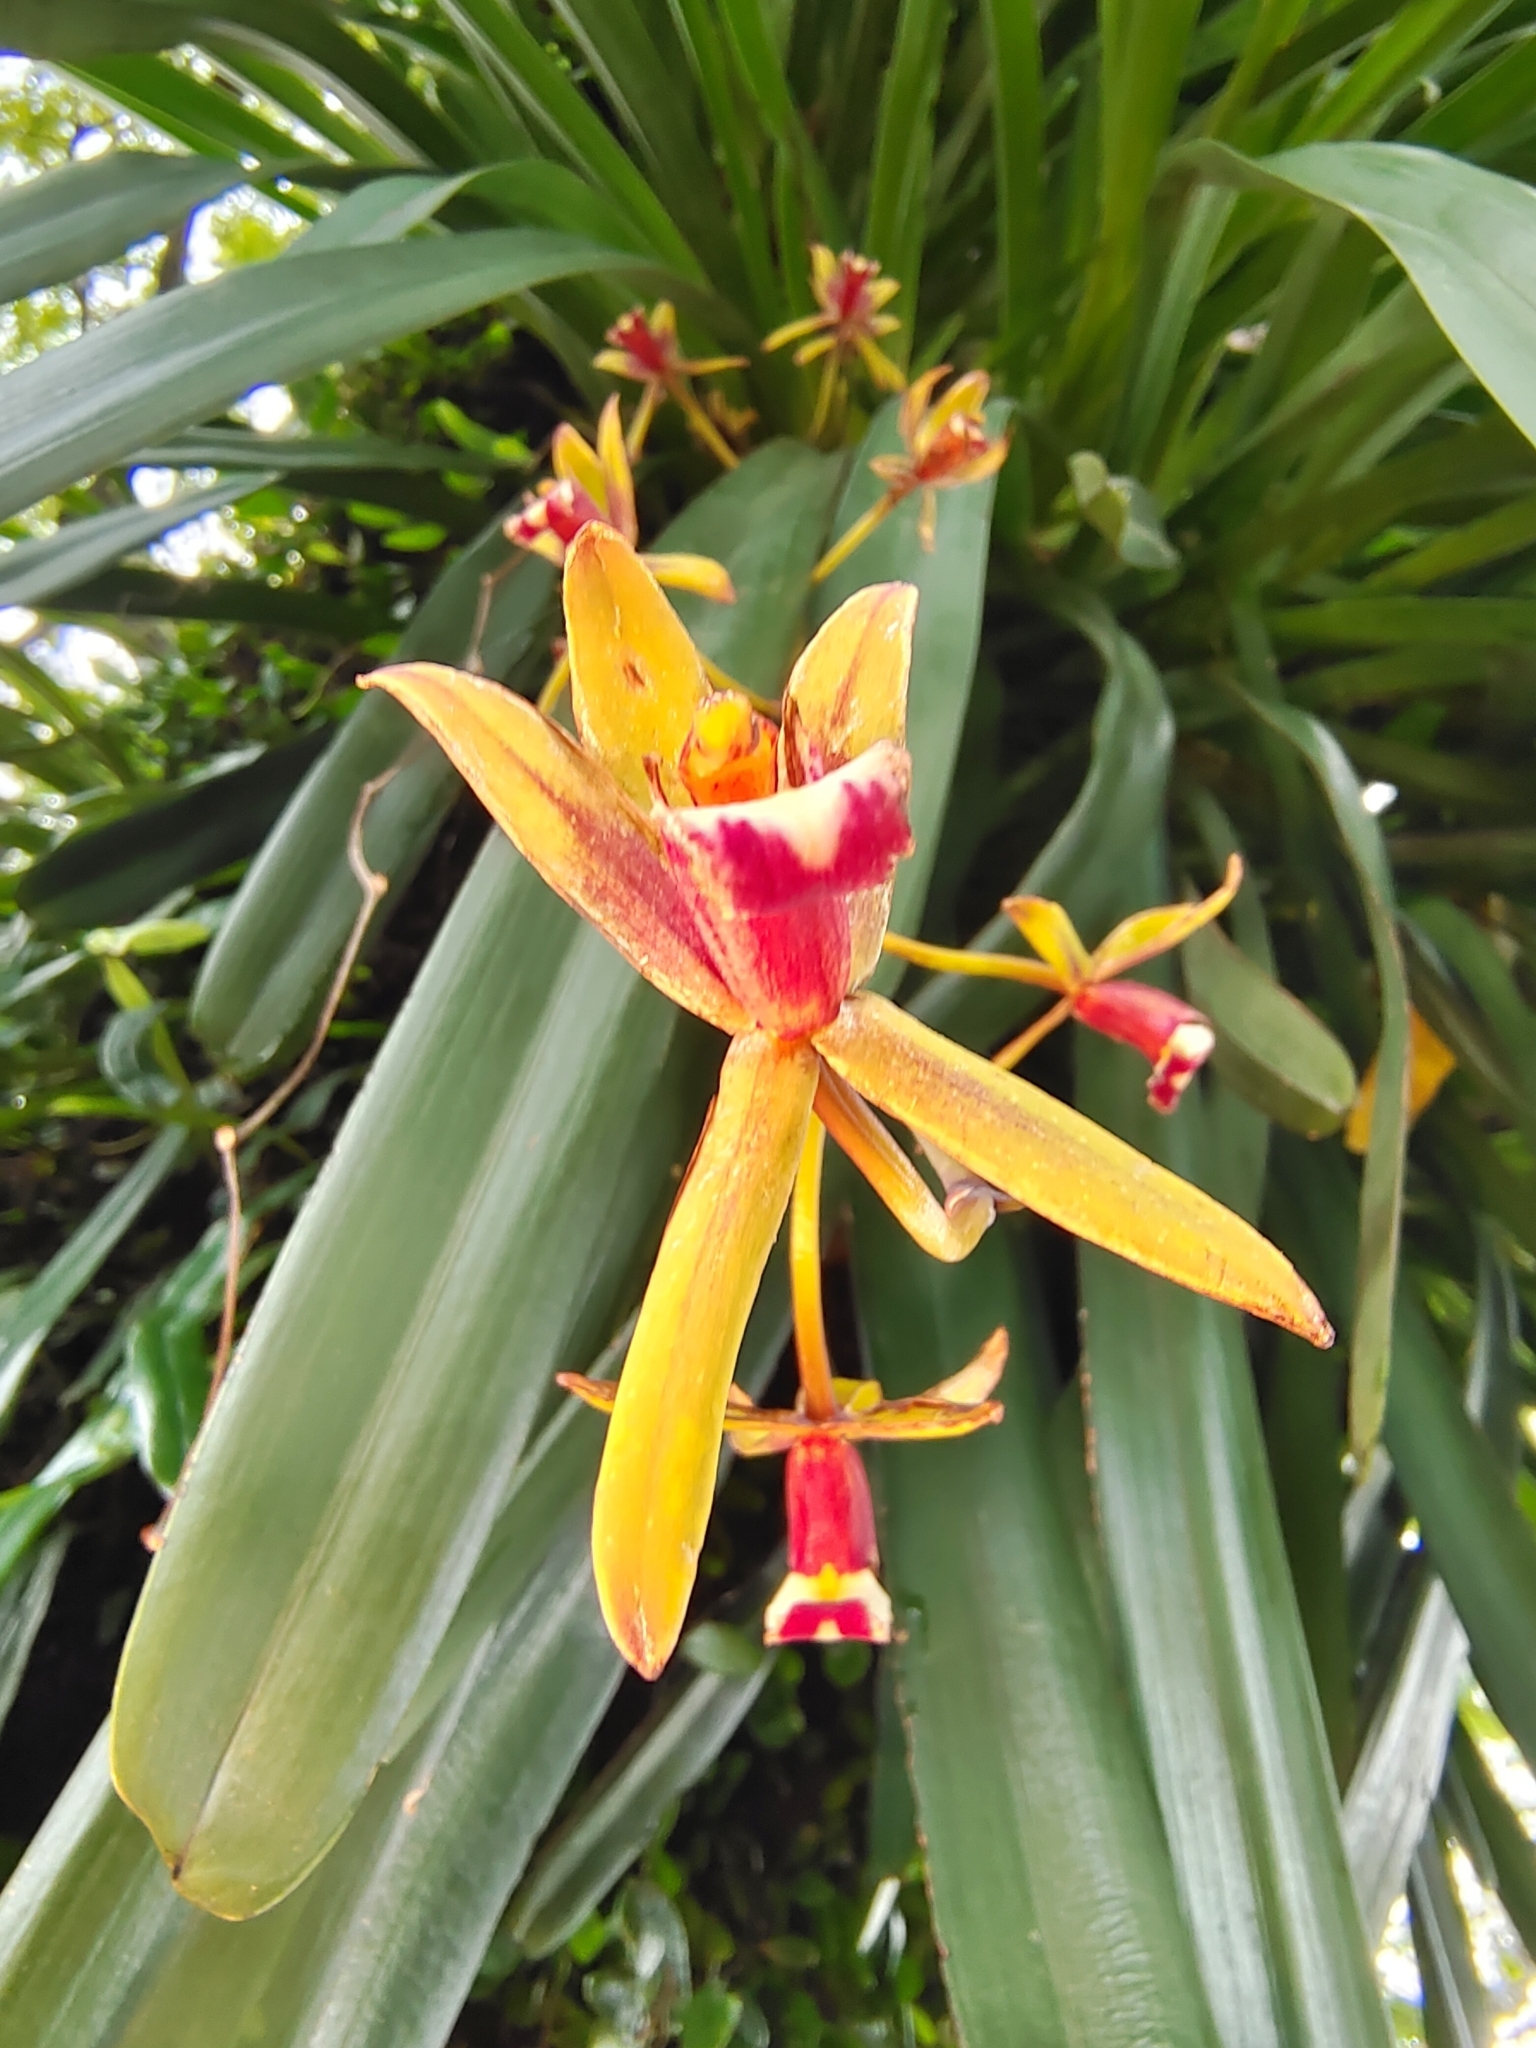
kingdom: Plantae
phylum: Tracheophyta
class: Liliopsida
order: Asparagales
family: Orchidaceae
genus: Cymbidium
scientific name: Cymbidium finlaysonianum
